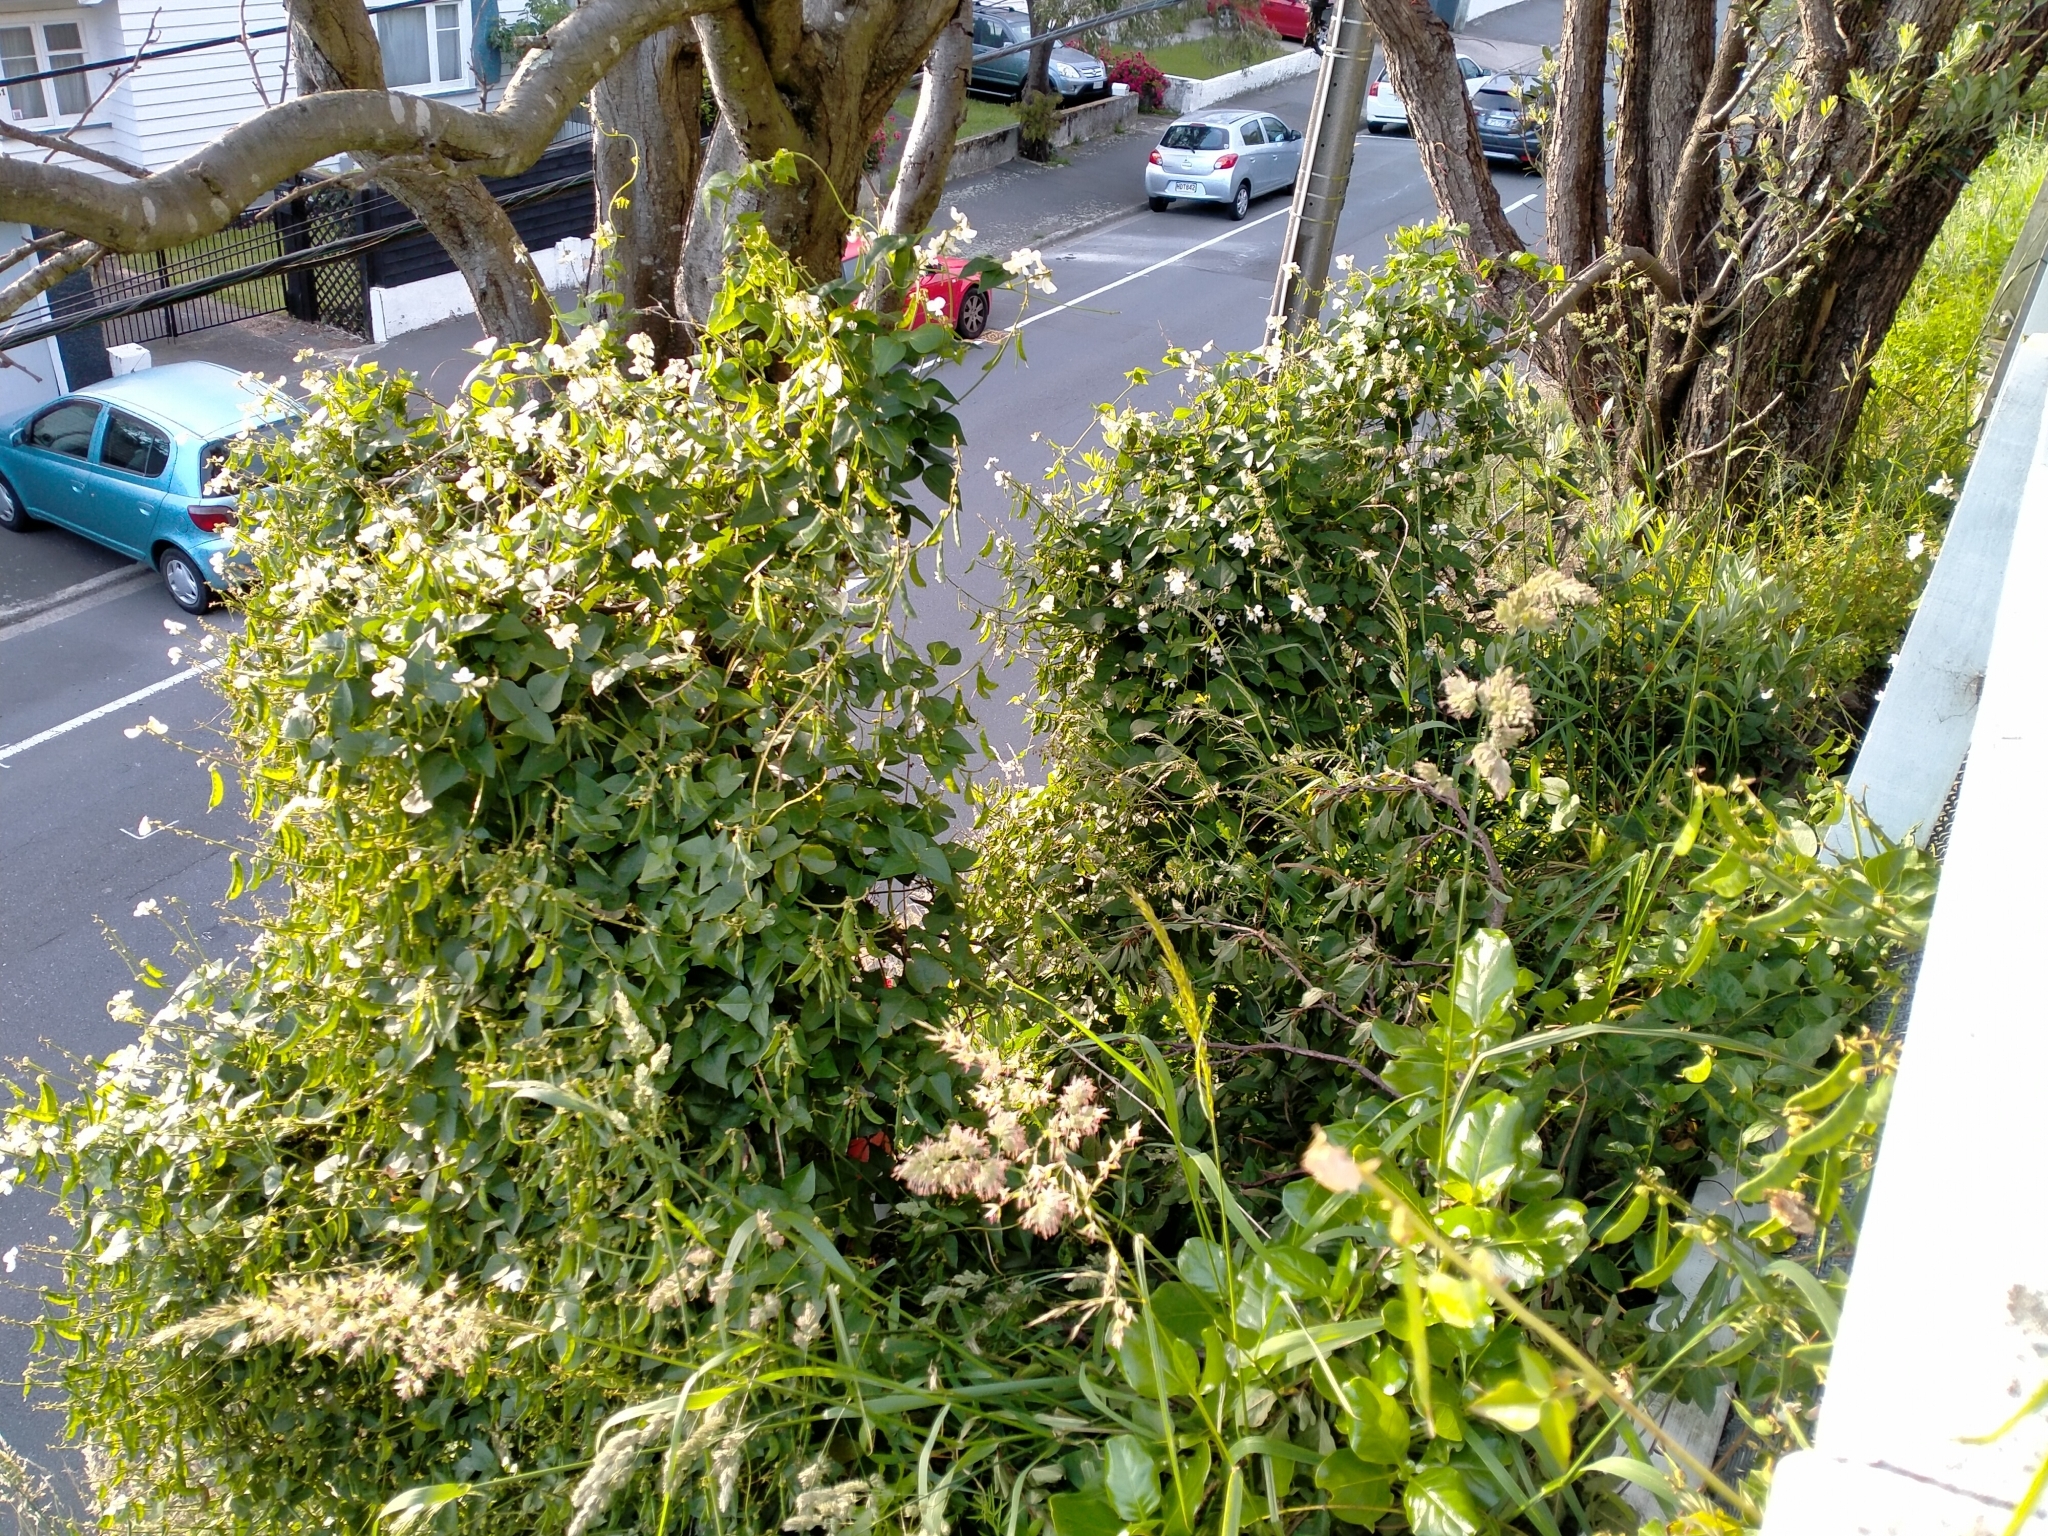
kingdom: Plantae
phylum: Tracheophyta
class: Magnoliopsida
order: Fabales
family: Fabaceae
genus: Dipogon
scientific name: Dipogon lignosus
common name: Okie bean
